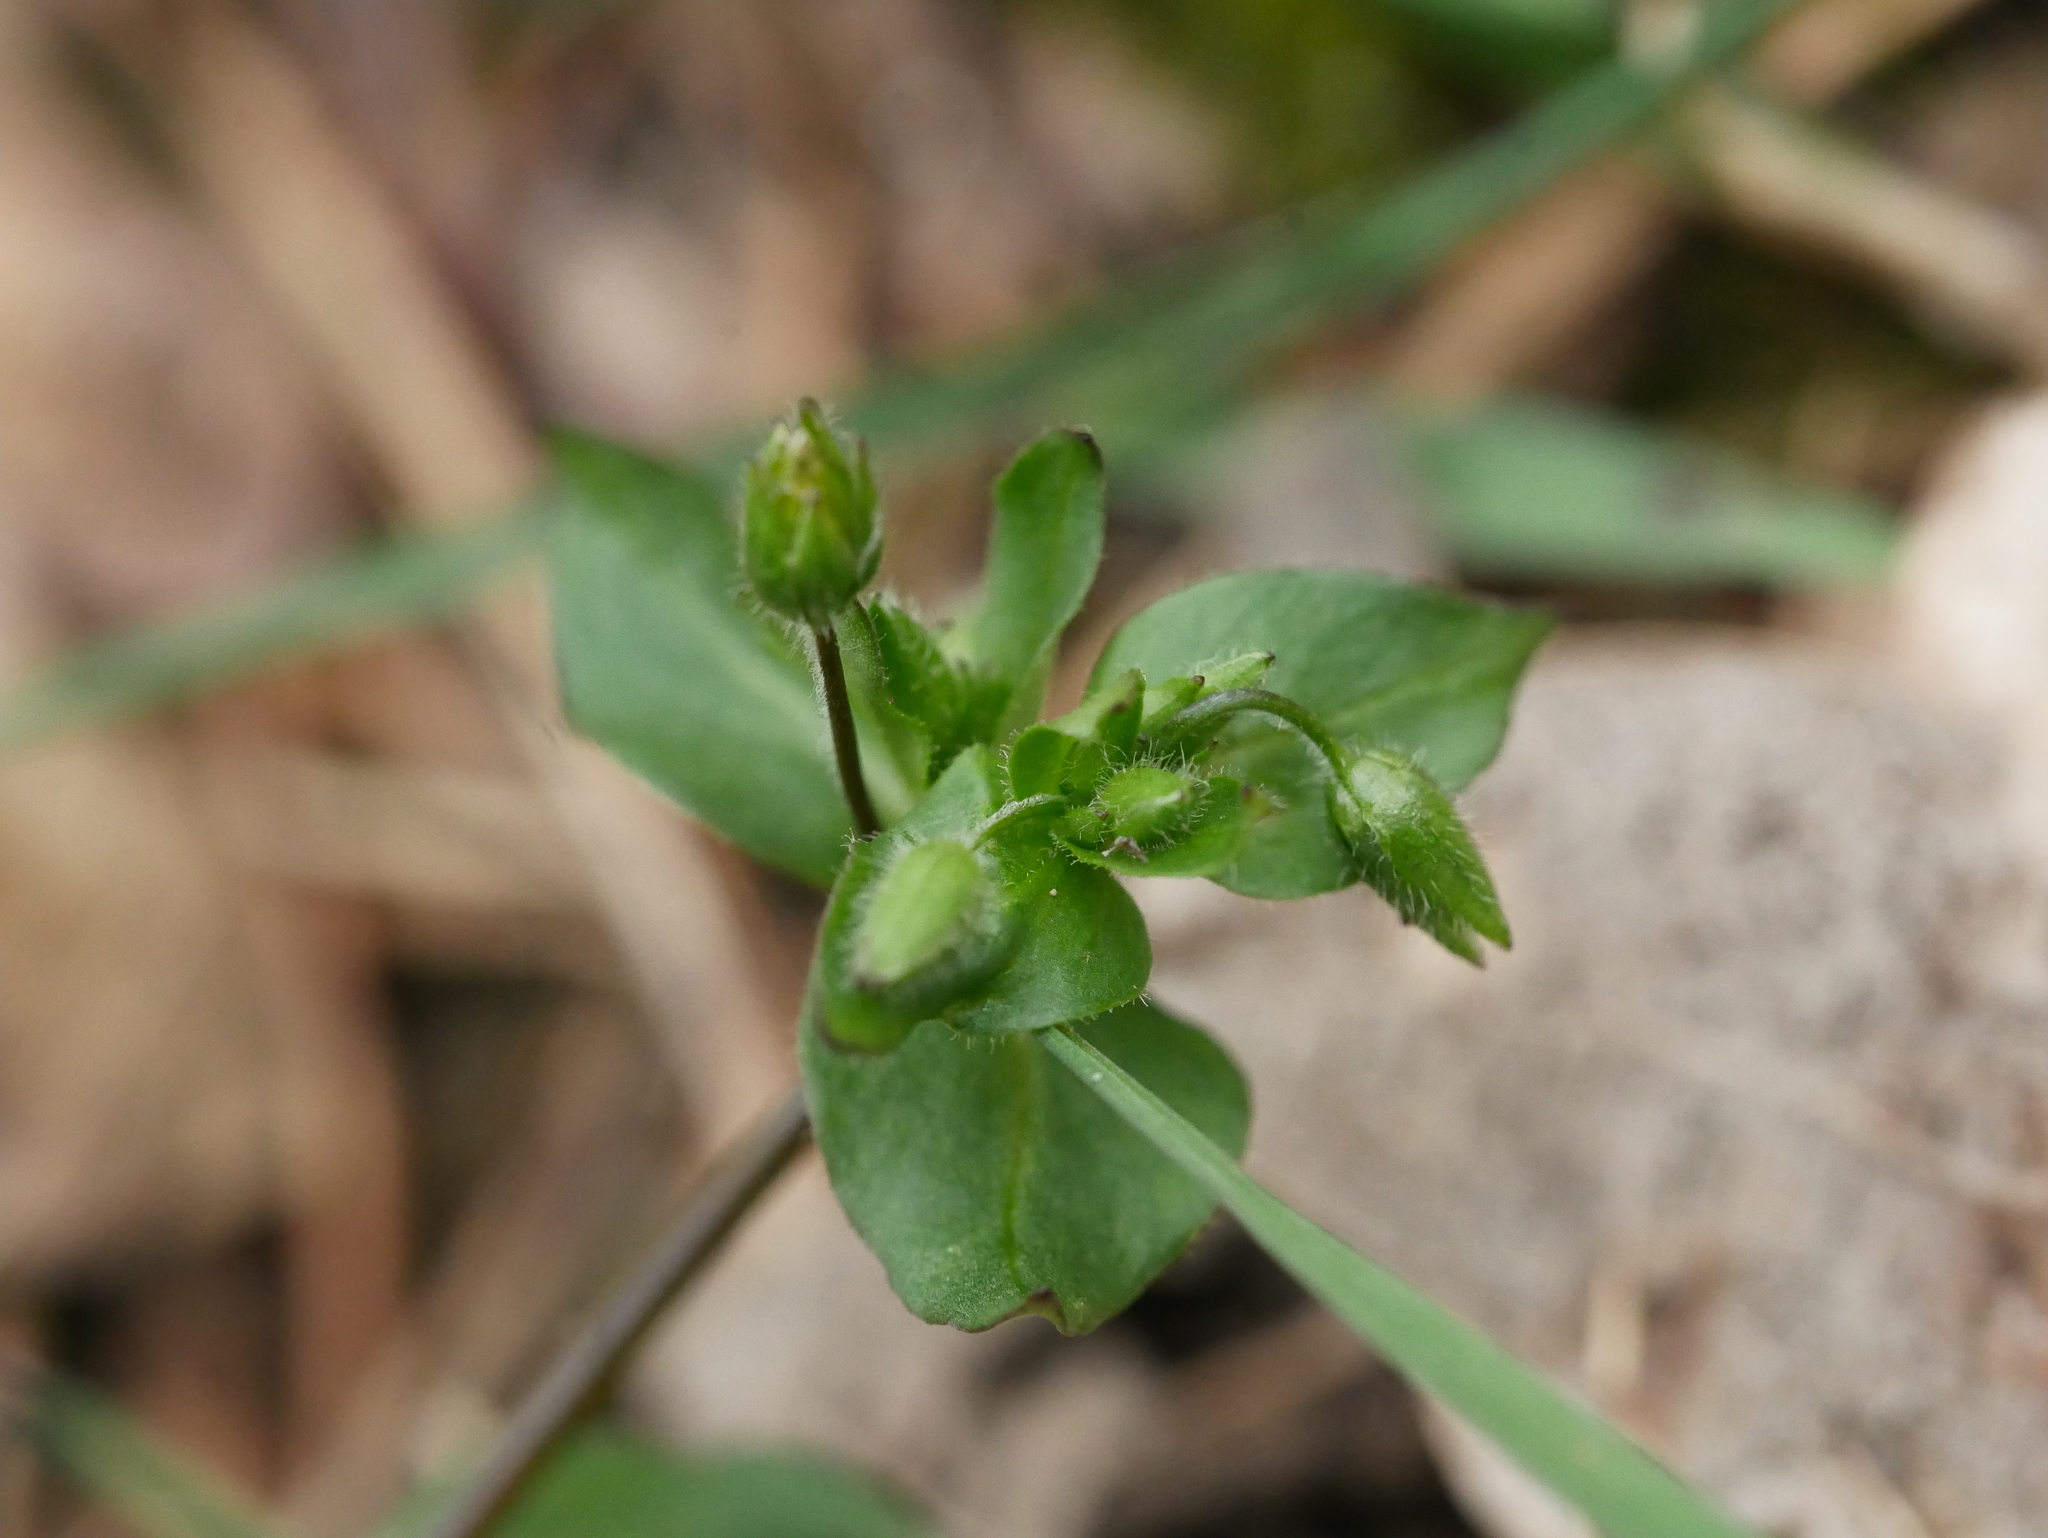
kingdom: Plantae
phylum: Tracheophyta
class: Magnoliopsida
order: Caryophyllales
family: Caryophyllaceae
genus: Stellaria
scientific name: Stellaria media
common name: Common chickweed
